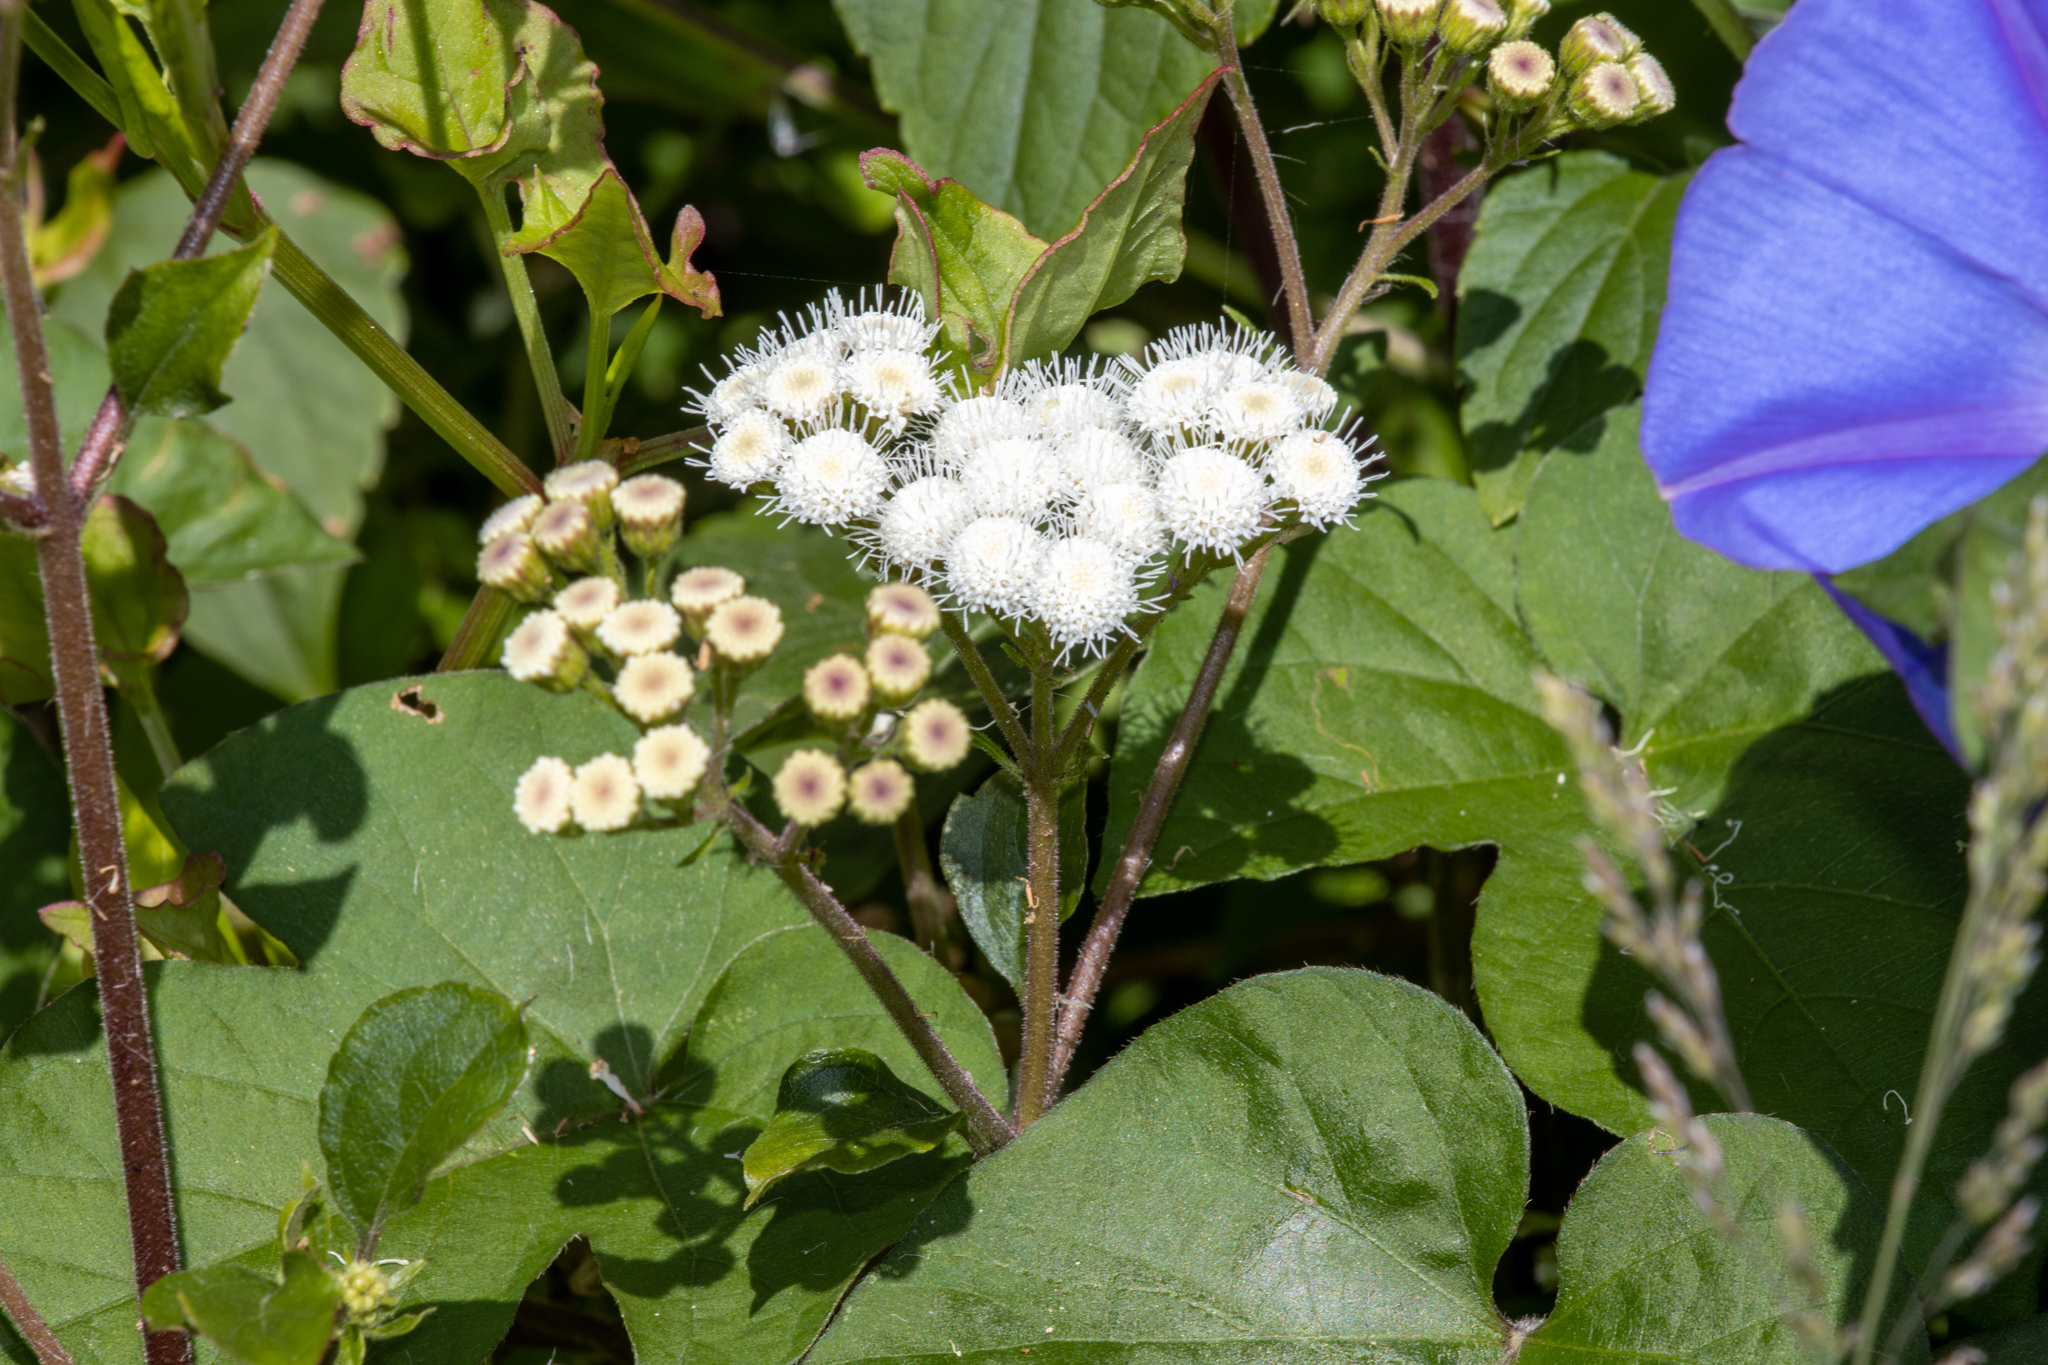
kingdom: Plantae
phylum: Tracheophyta
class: Magnoliopsida
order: Asterales
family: Asteraceae
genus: Ageratina
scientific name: Ageratina adenophora
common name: Sticky snakeroot
